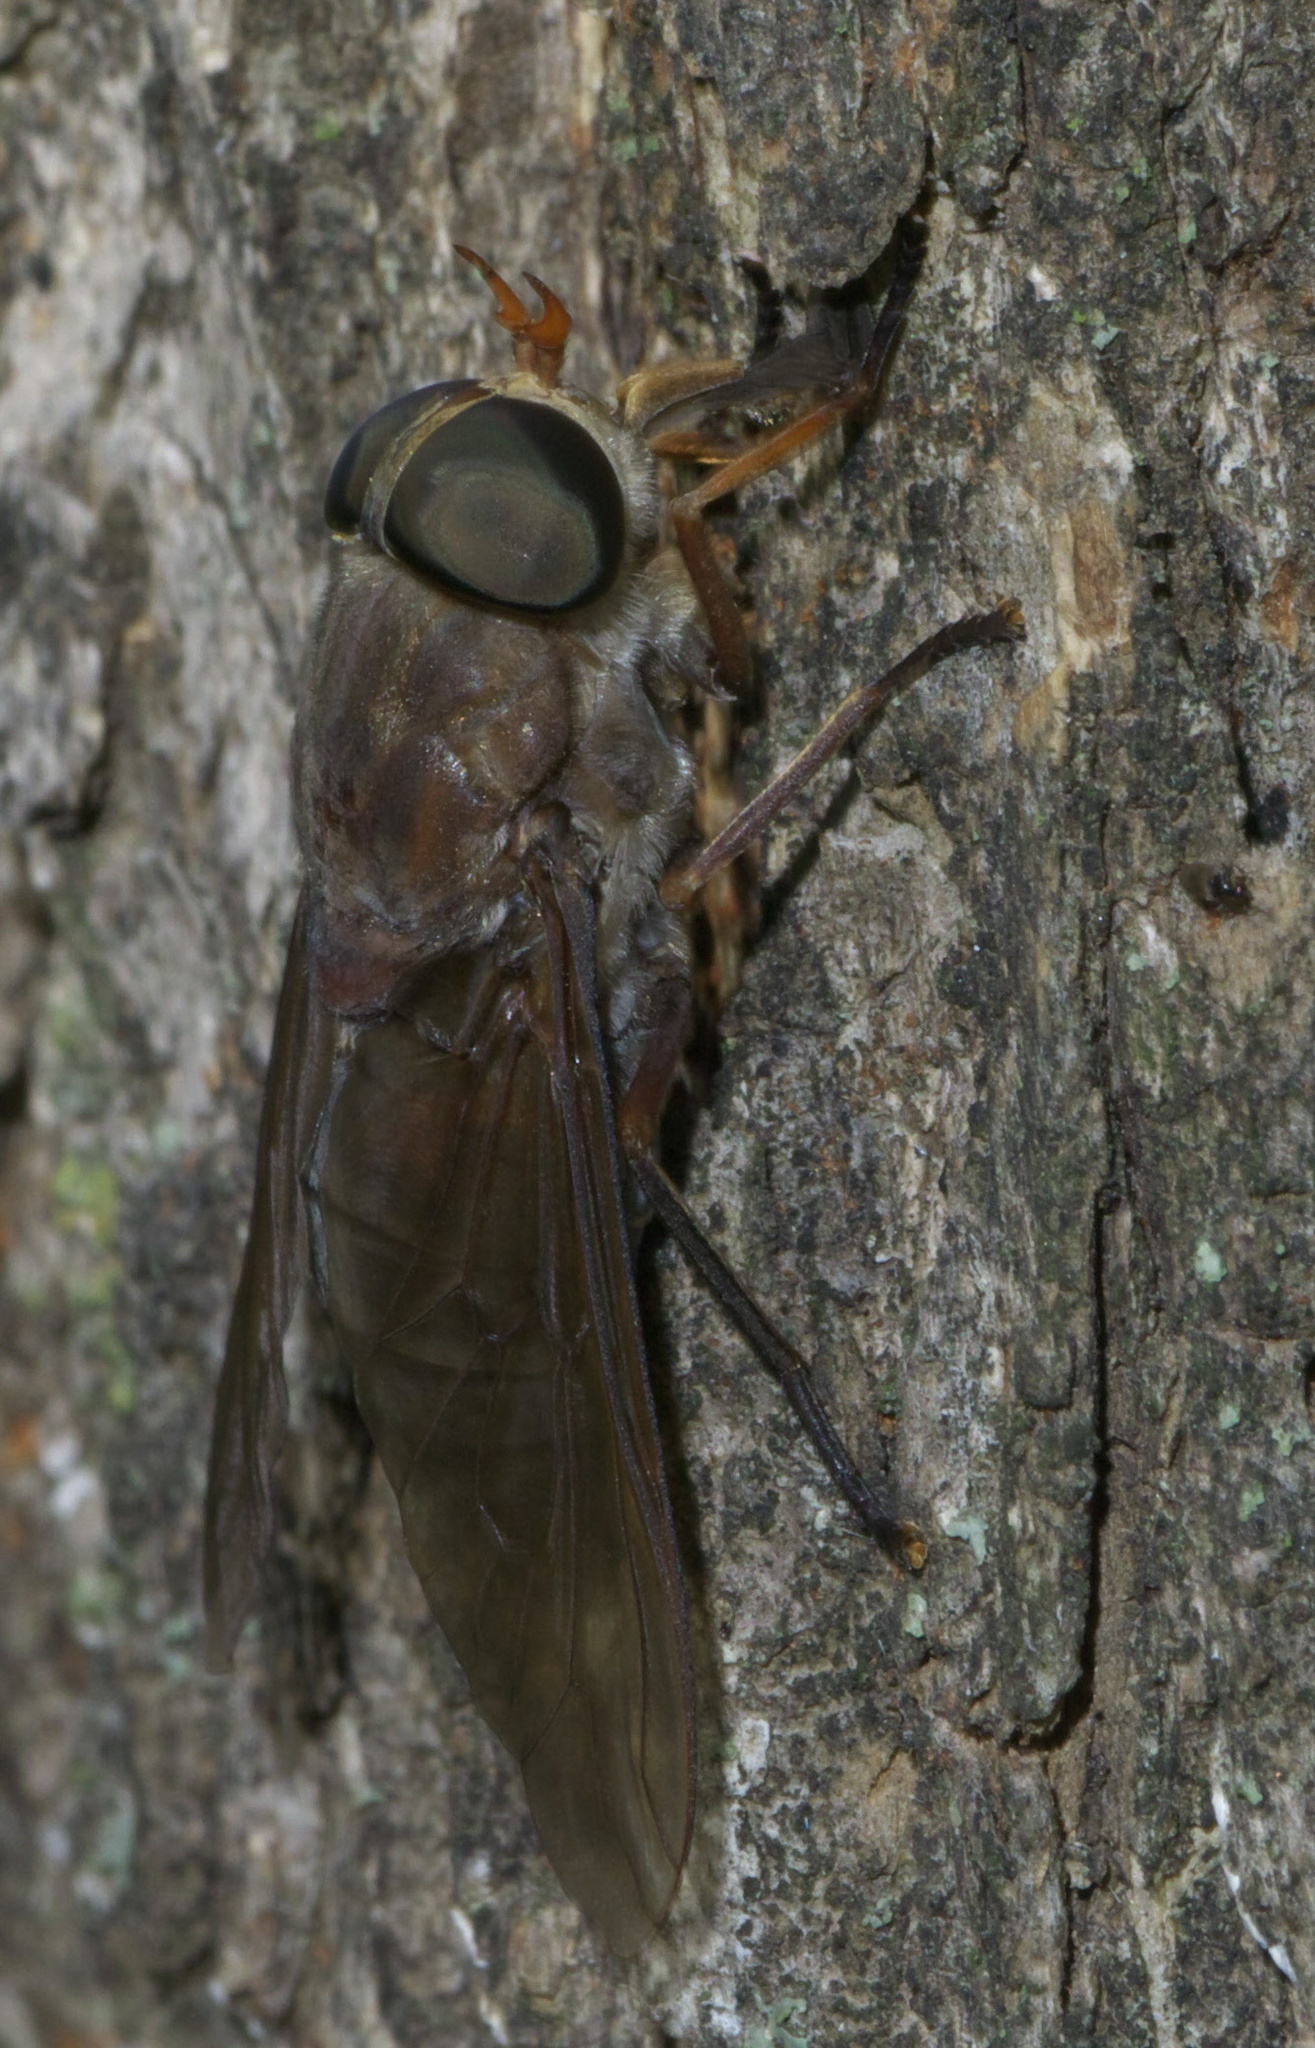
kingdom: Animalia
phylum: Arthropoda
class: Insecta
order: Diptera
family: Tabanidae
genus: Tabanus
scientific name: Tabanus calens
